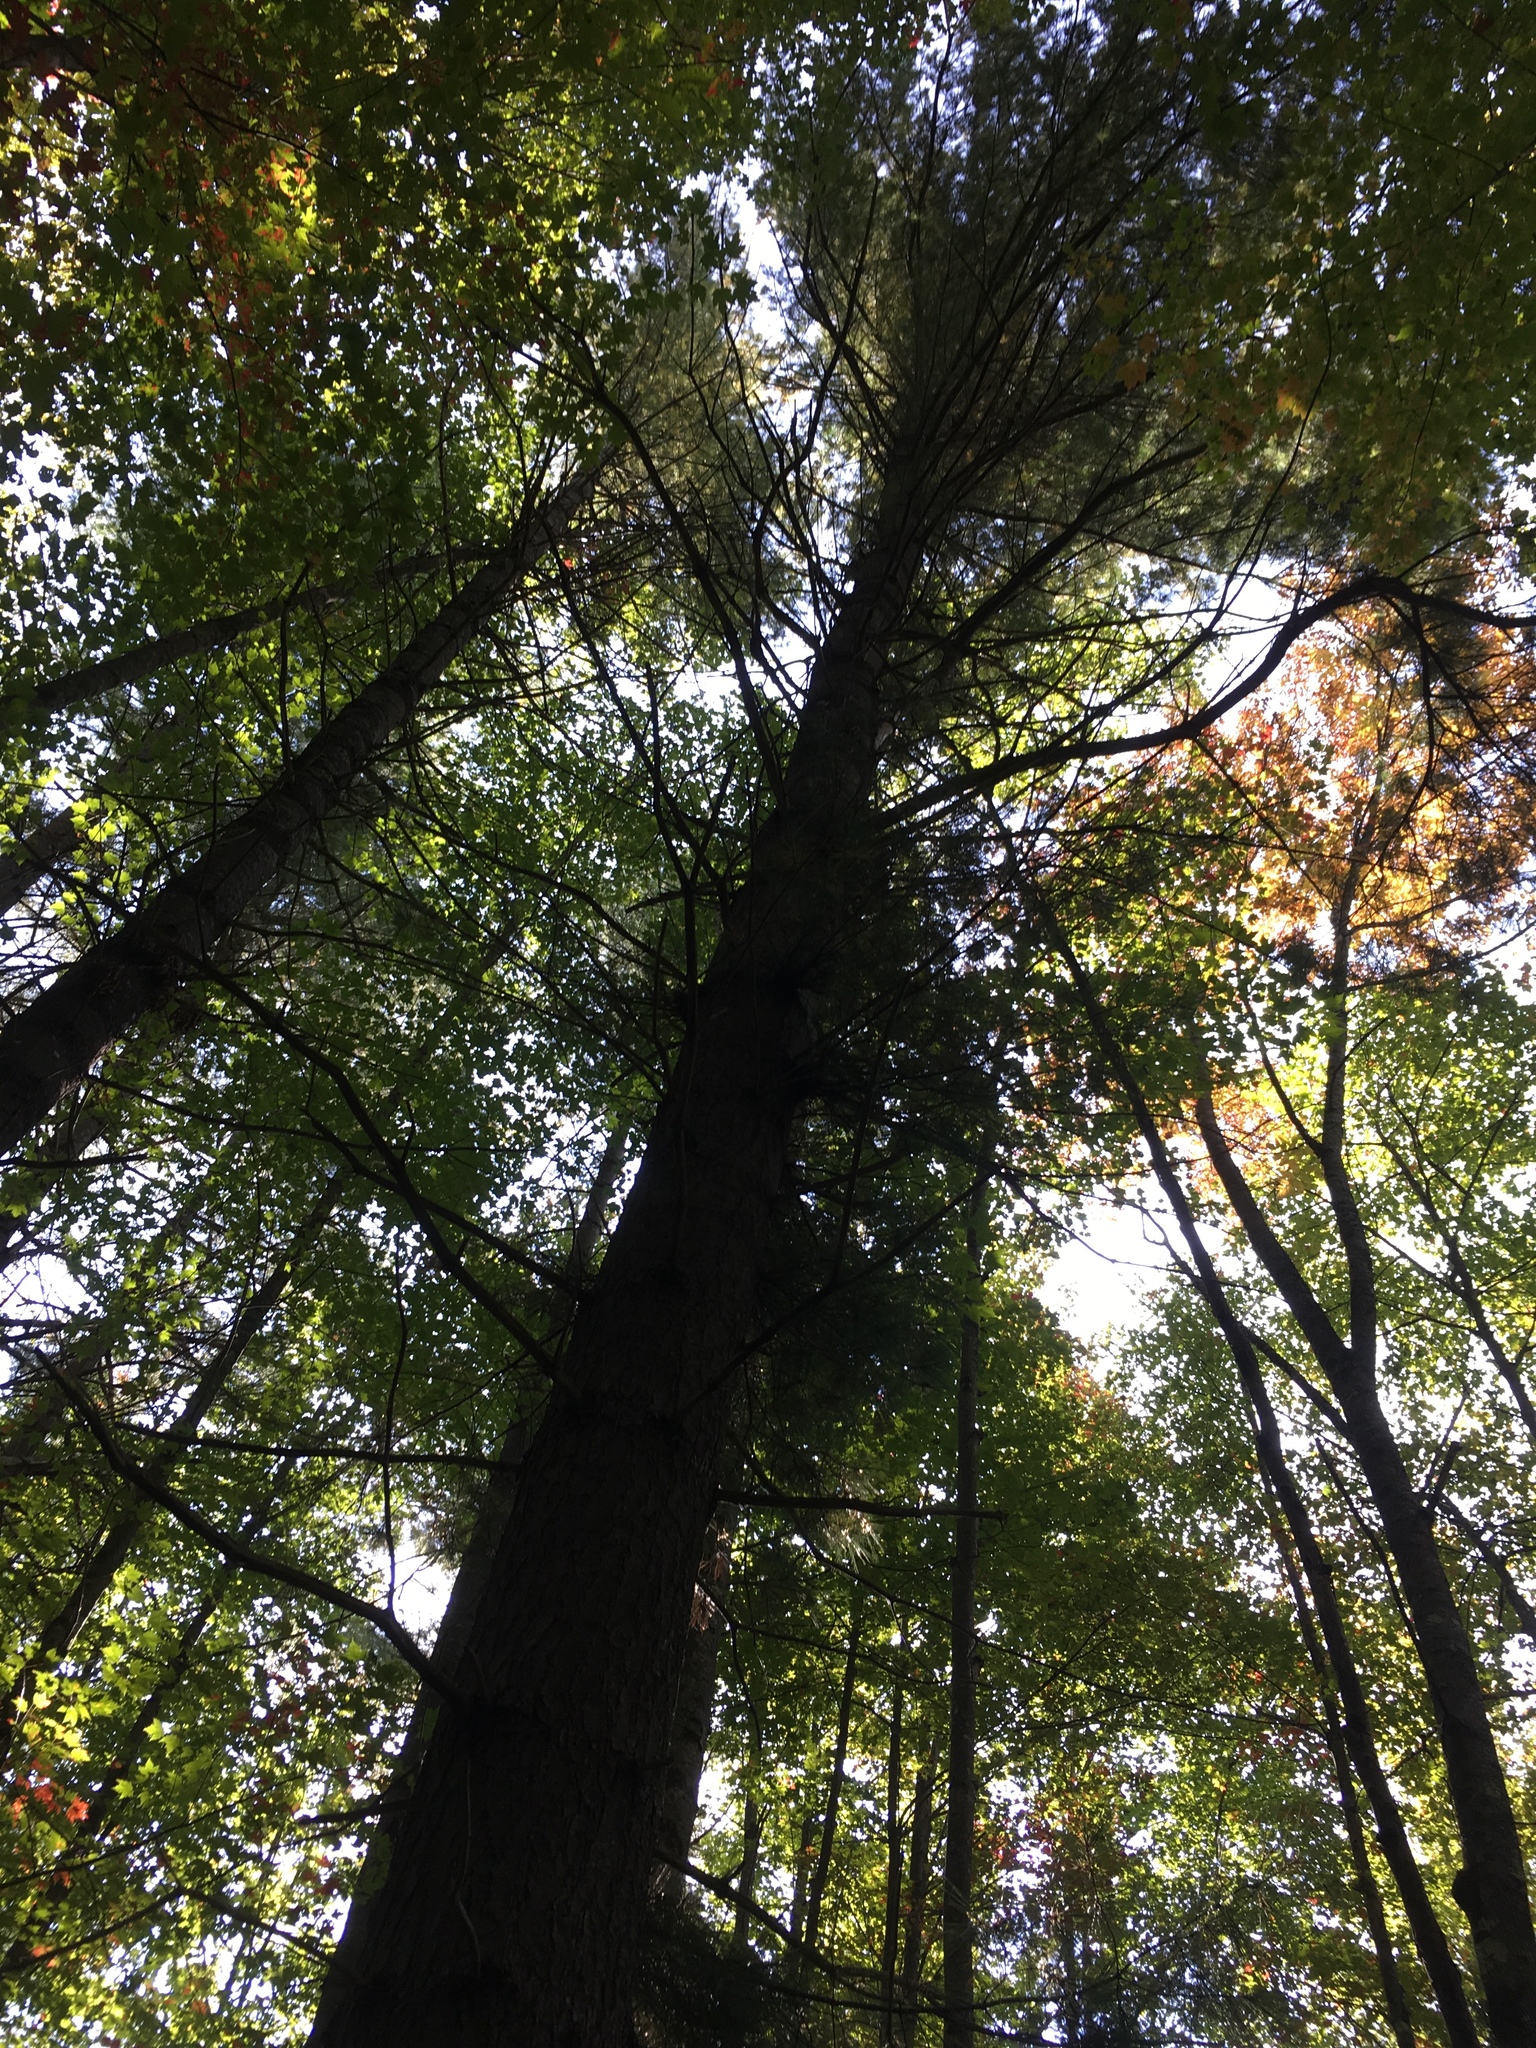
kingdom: Plantae
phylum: Tracheophyta
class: Pinopsida
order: Pinales
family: Pinaceae
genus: Pinus
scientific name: Pinus strobus
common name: Weymouth pine
